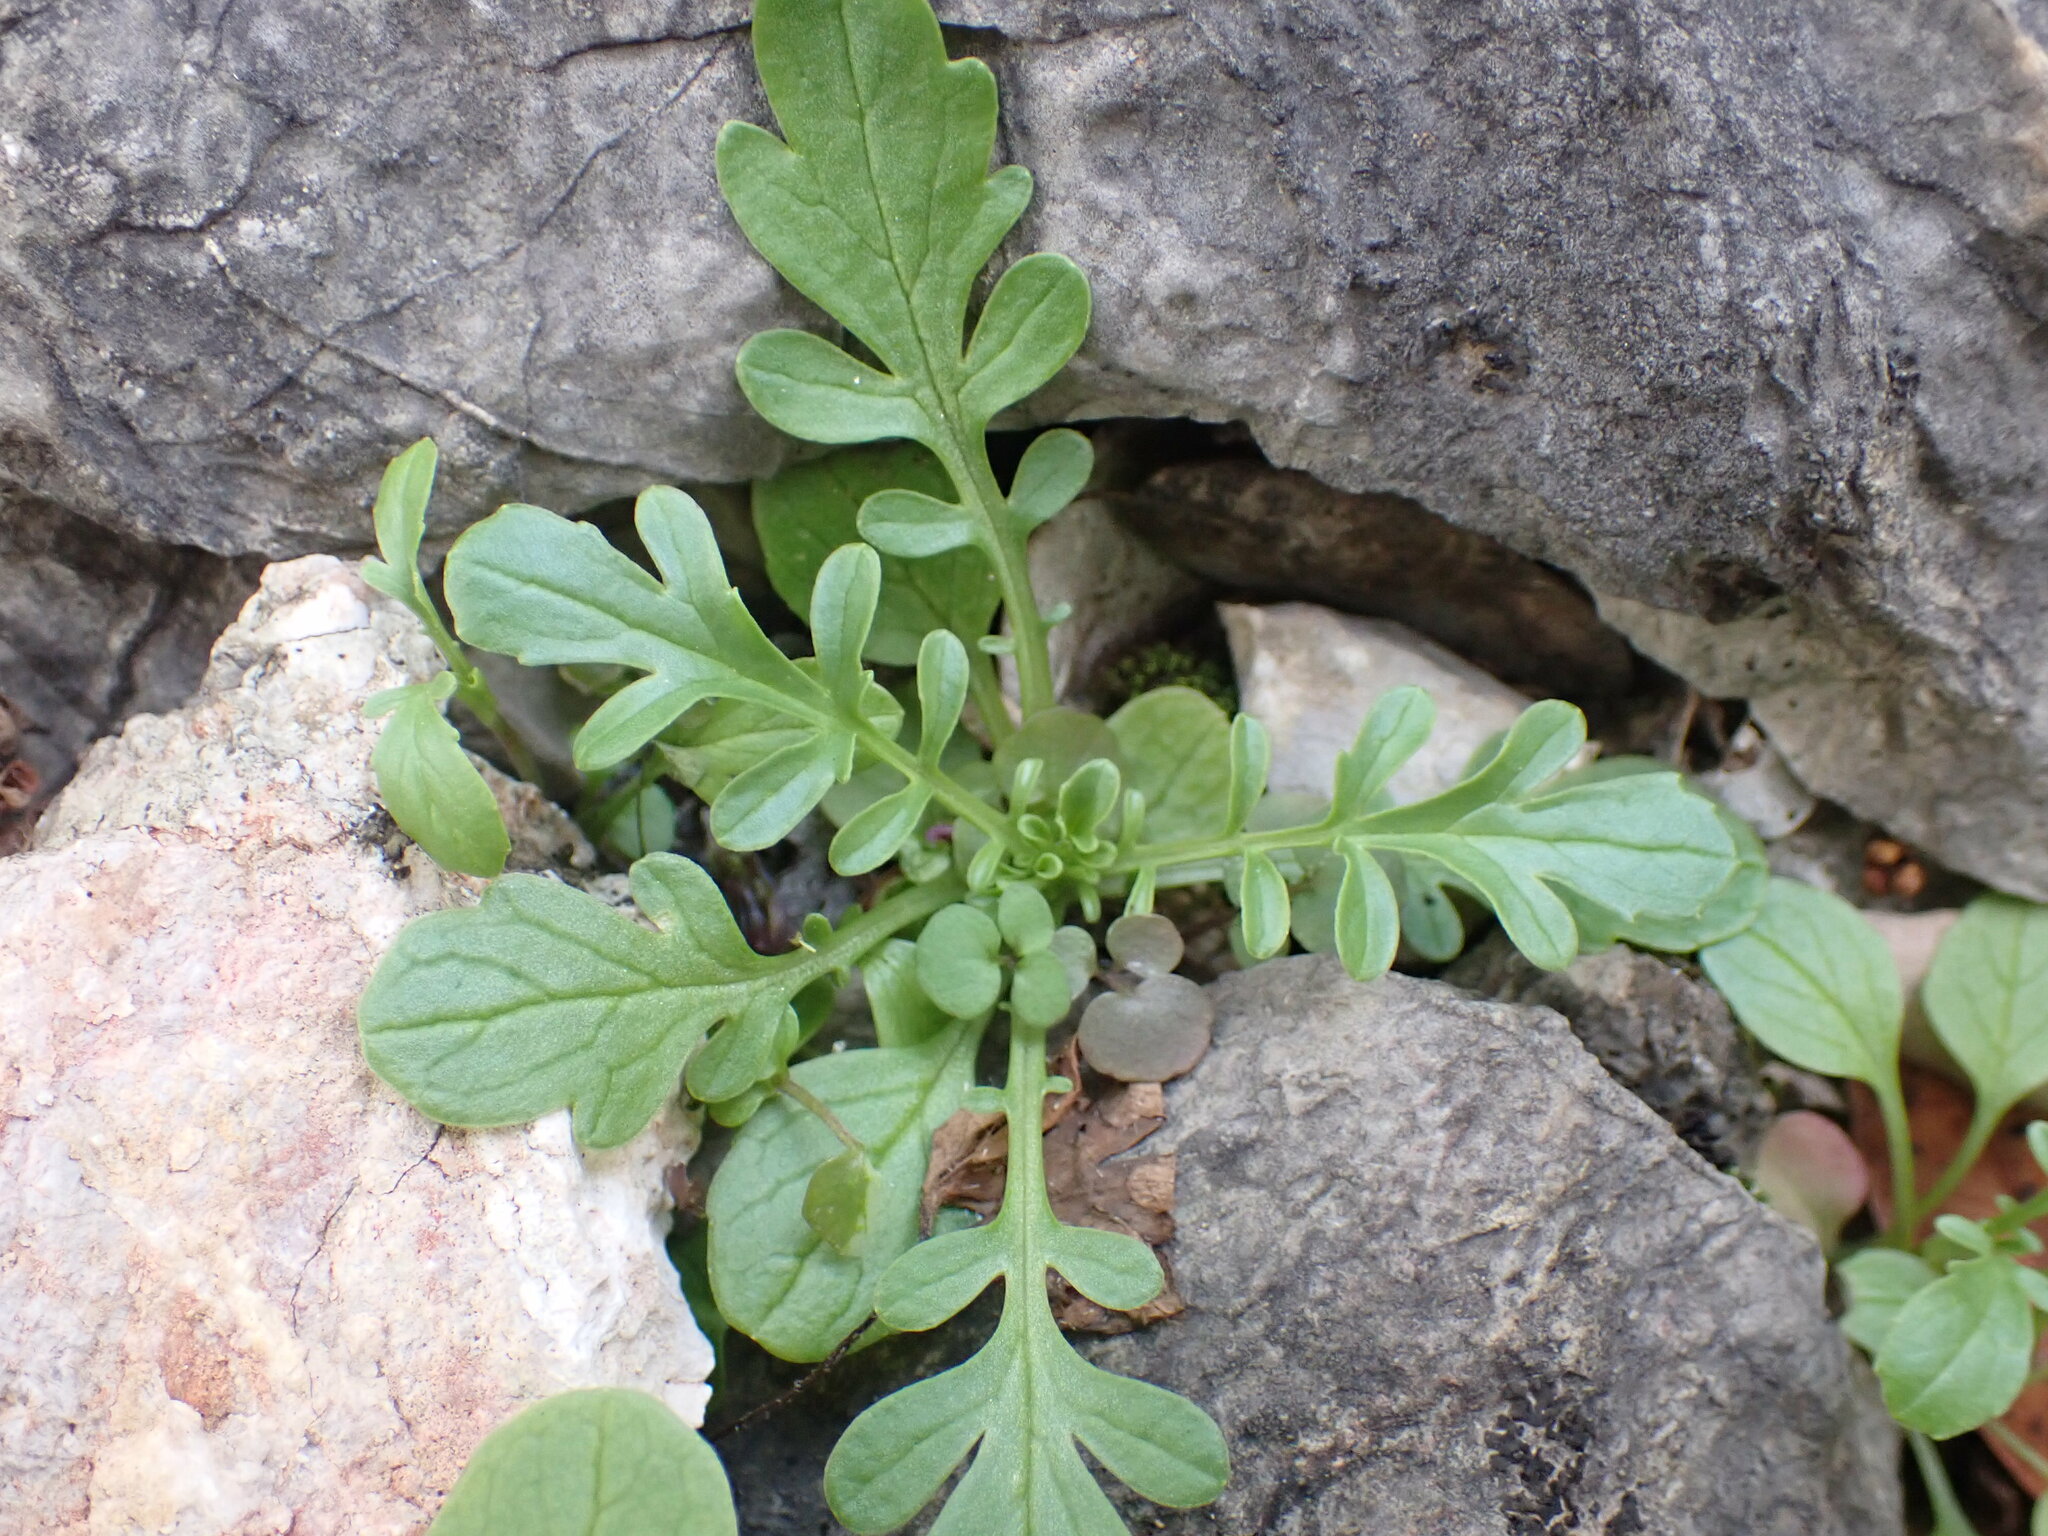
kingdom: Plantae
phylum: Tracheophyta
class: Magnoliopsida
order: Dipsacales
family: Caprifoliaceae
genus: Centranthus
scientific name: Centranthus calcitrapae
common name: Annual valerian
